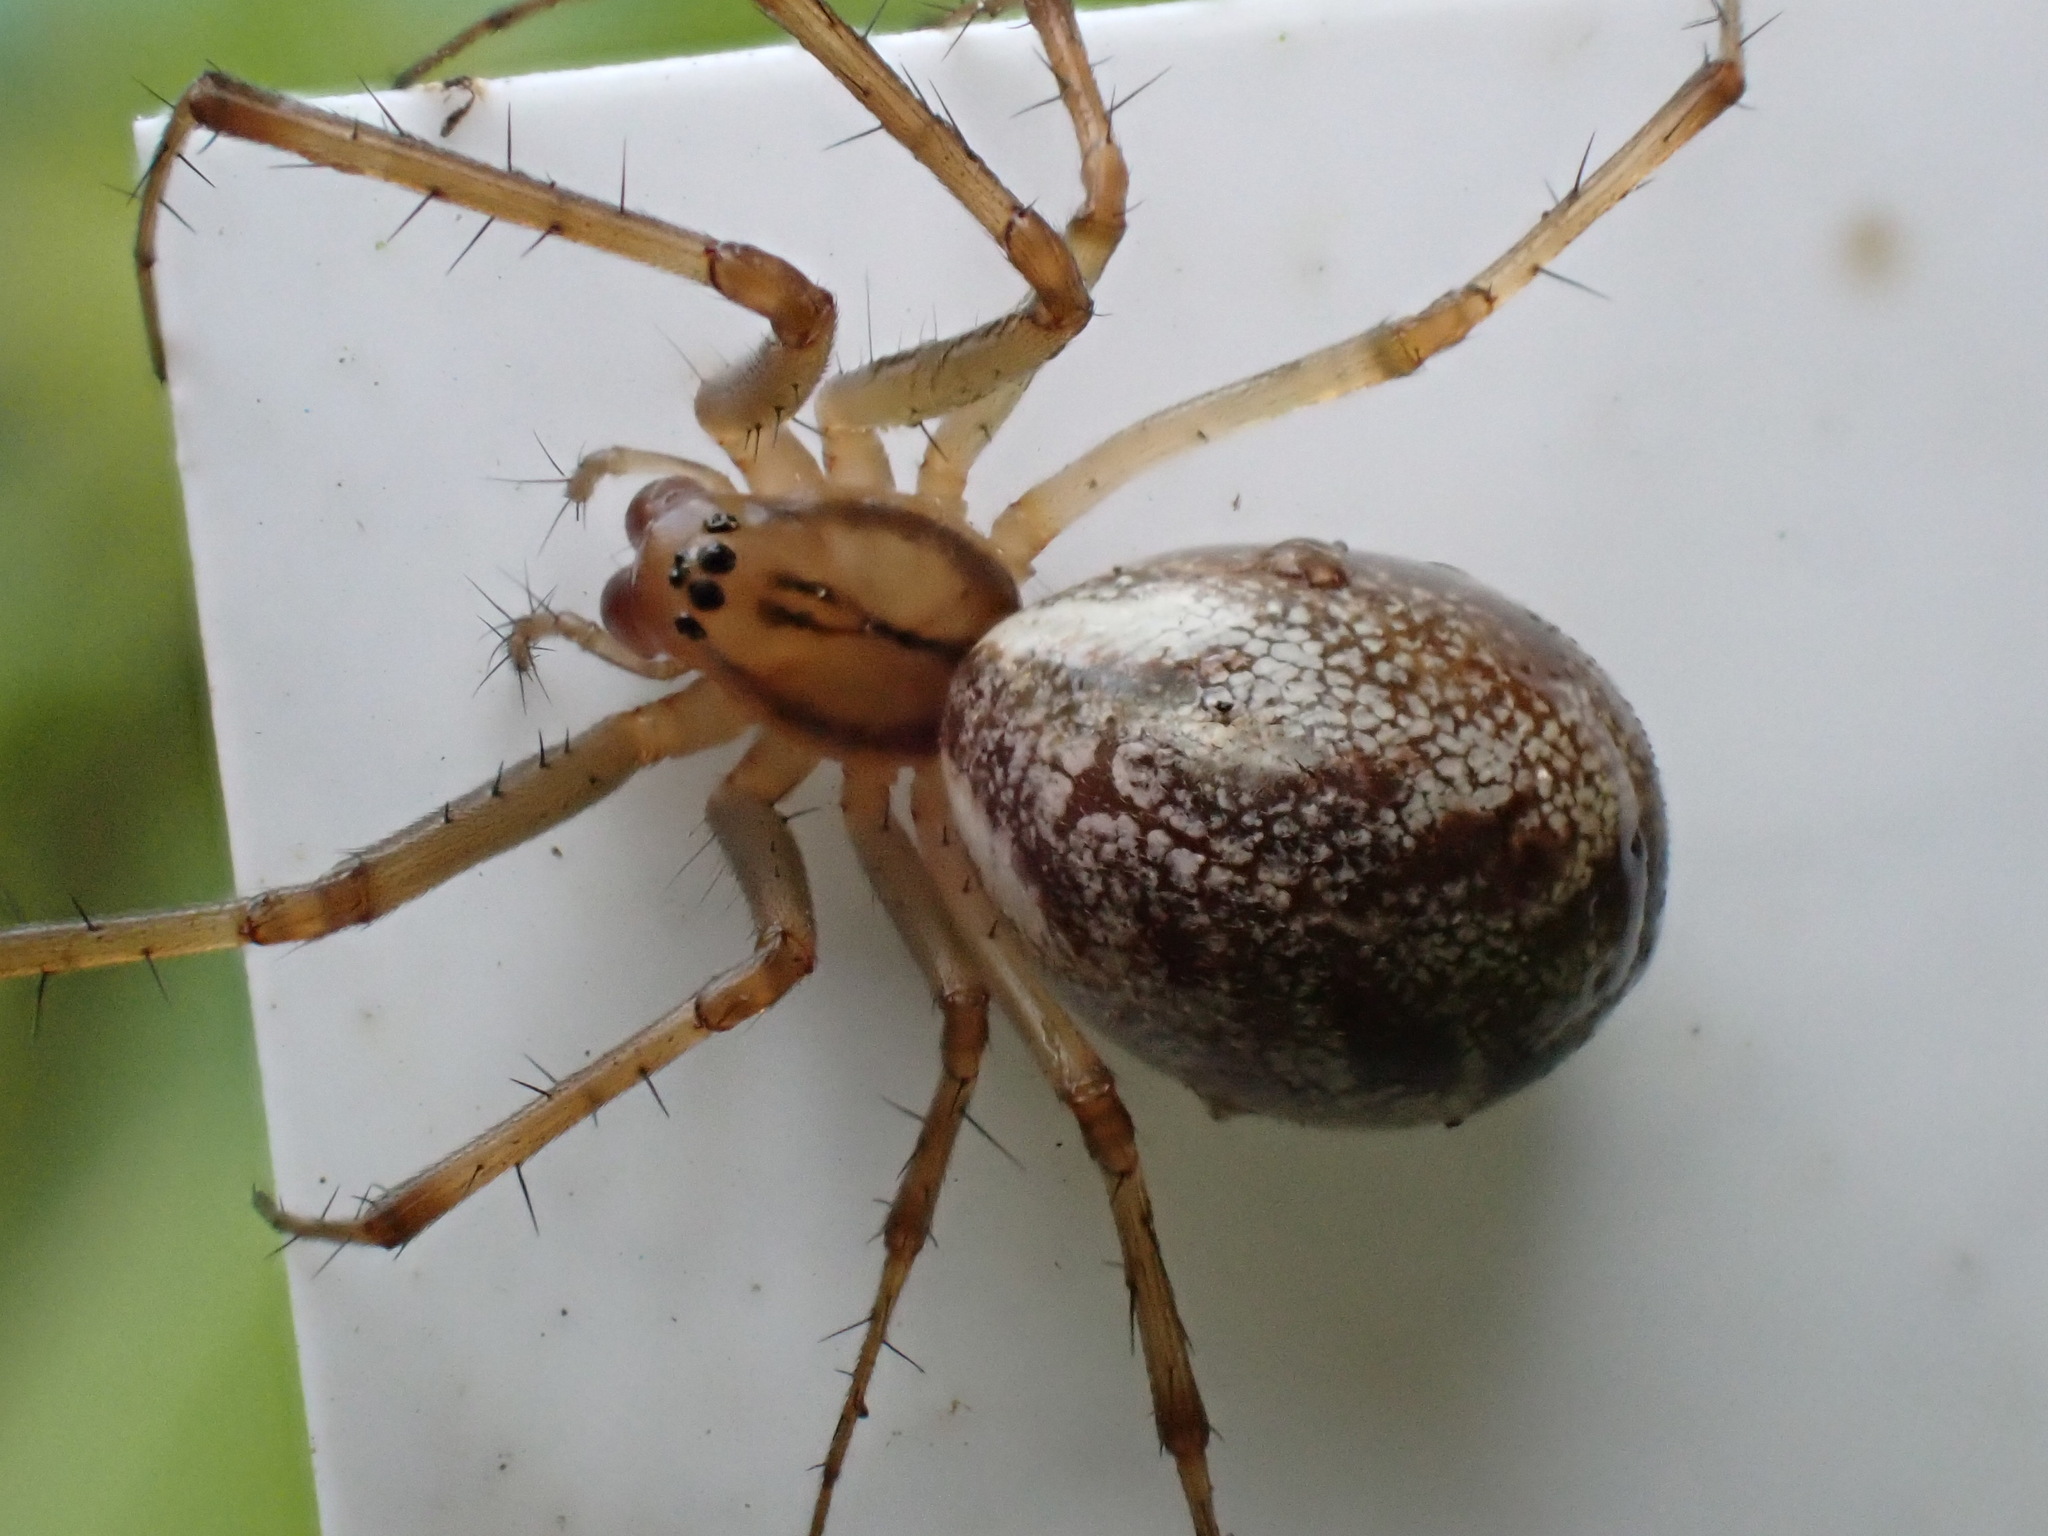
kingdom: Animalia
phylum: Arthropoda
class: Arachnida
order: Araneae
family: Linyphiidae
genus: Linyphia
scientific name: Linyphia triangularis
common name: Money spider
